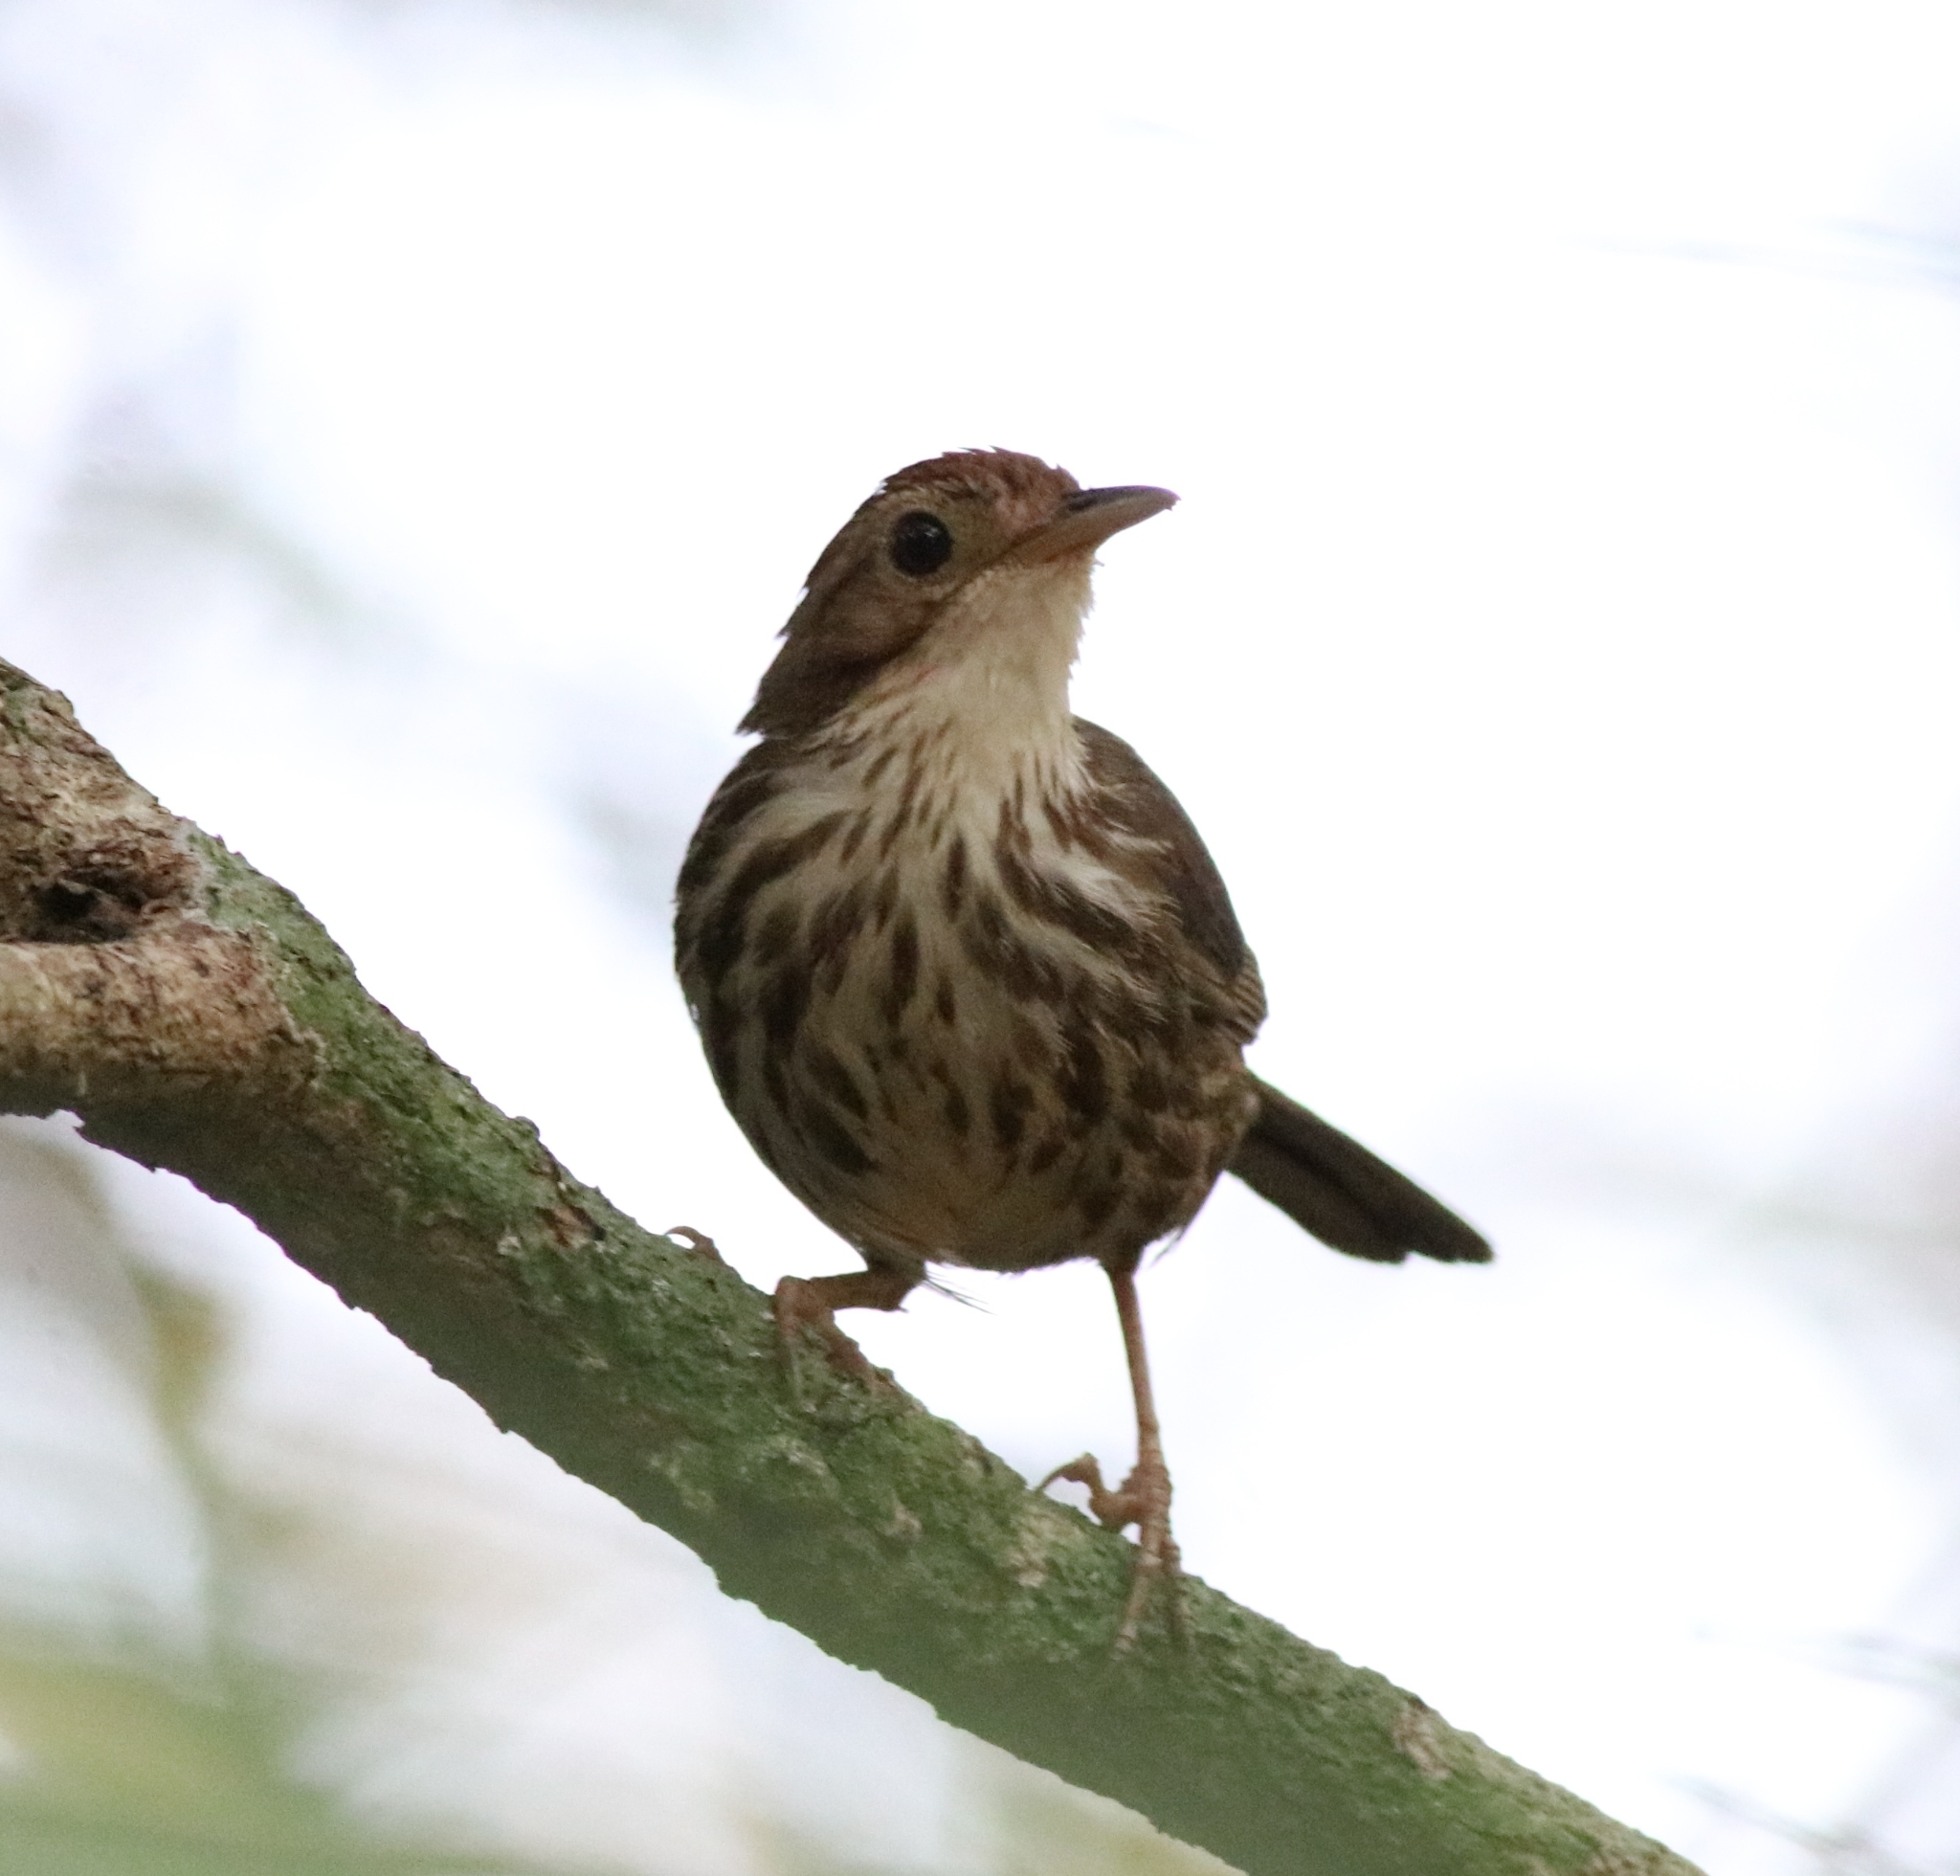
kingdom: Animalia
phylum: Chordata
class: Aves
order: Passeriformes
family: Pellorneidae
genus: Pellorneum
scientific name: Pellorneum ruficeps
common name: Puff-throated babbler
